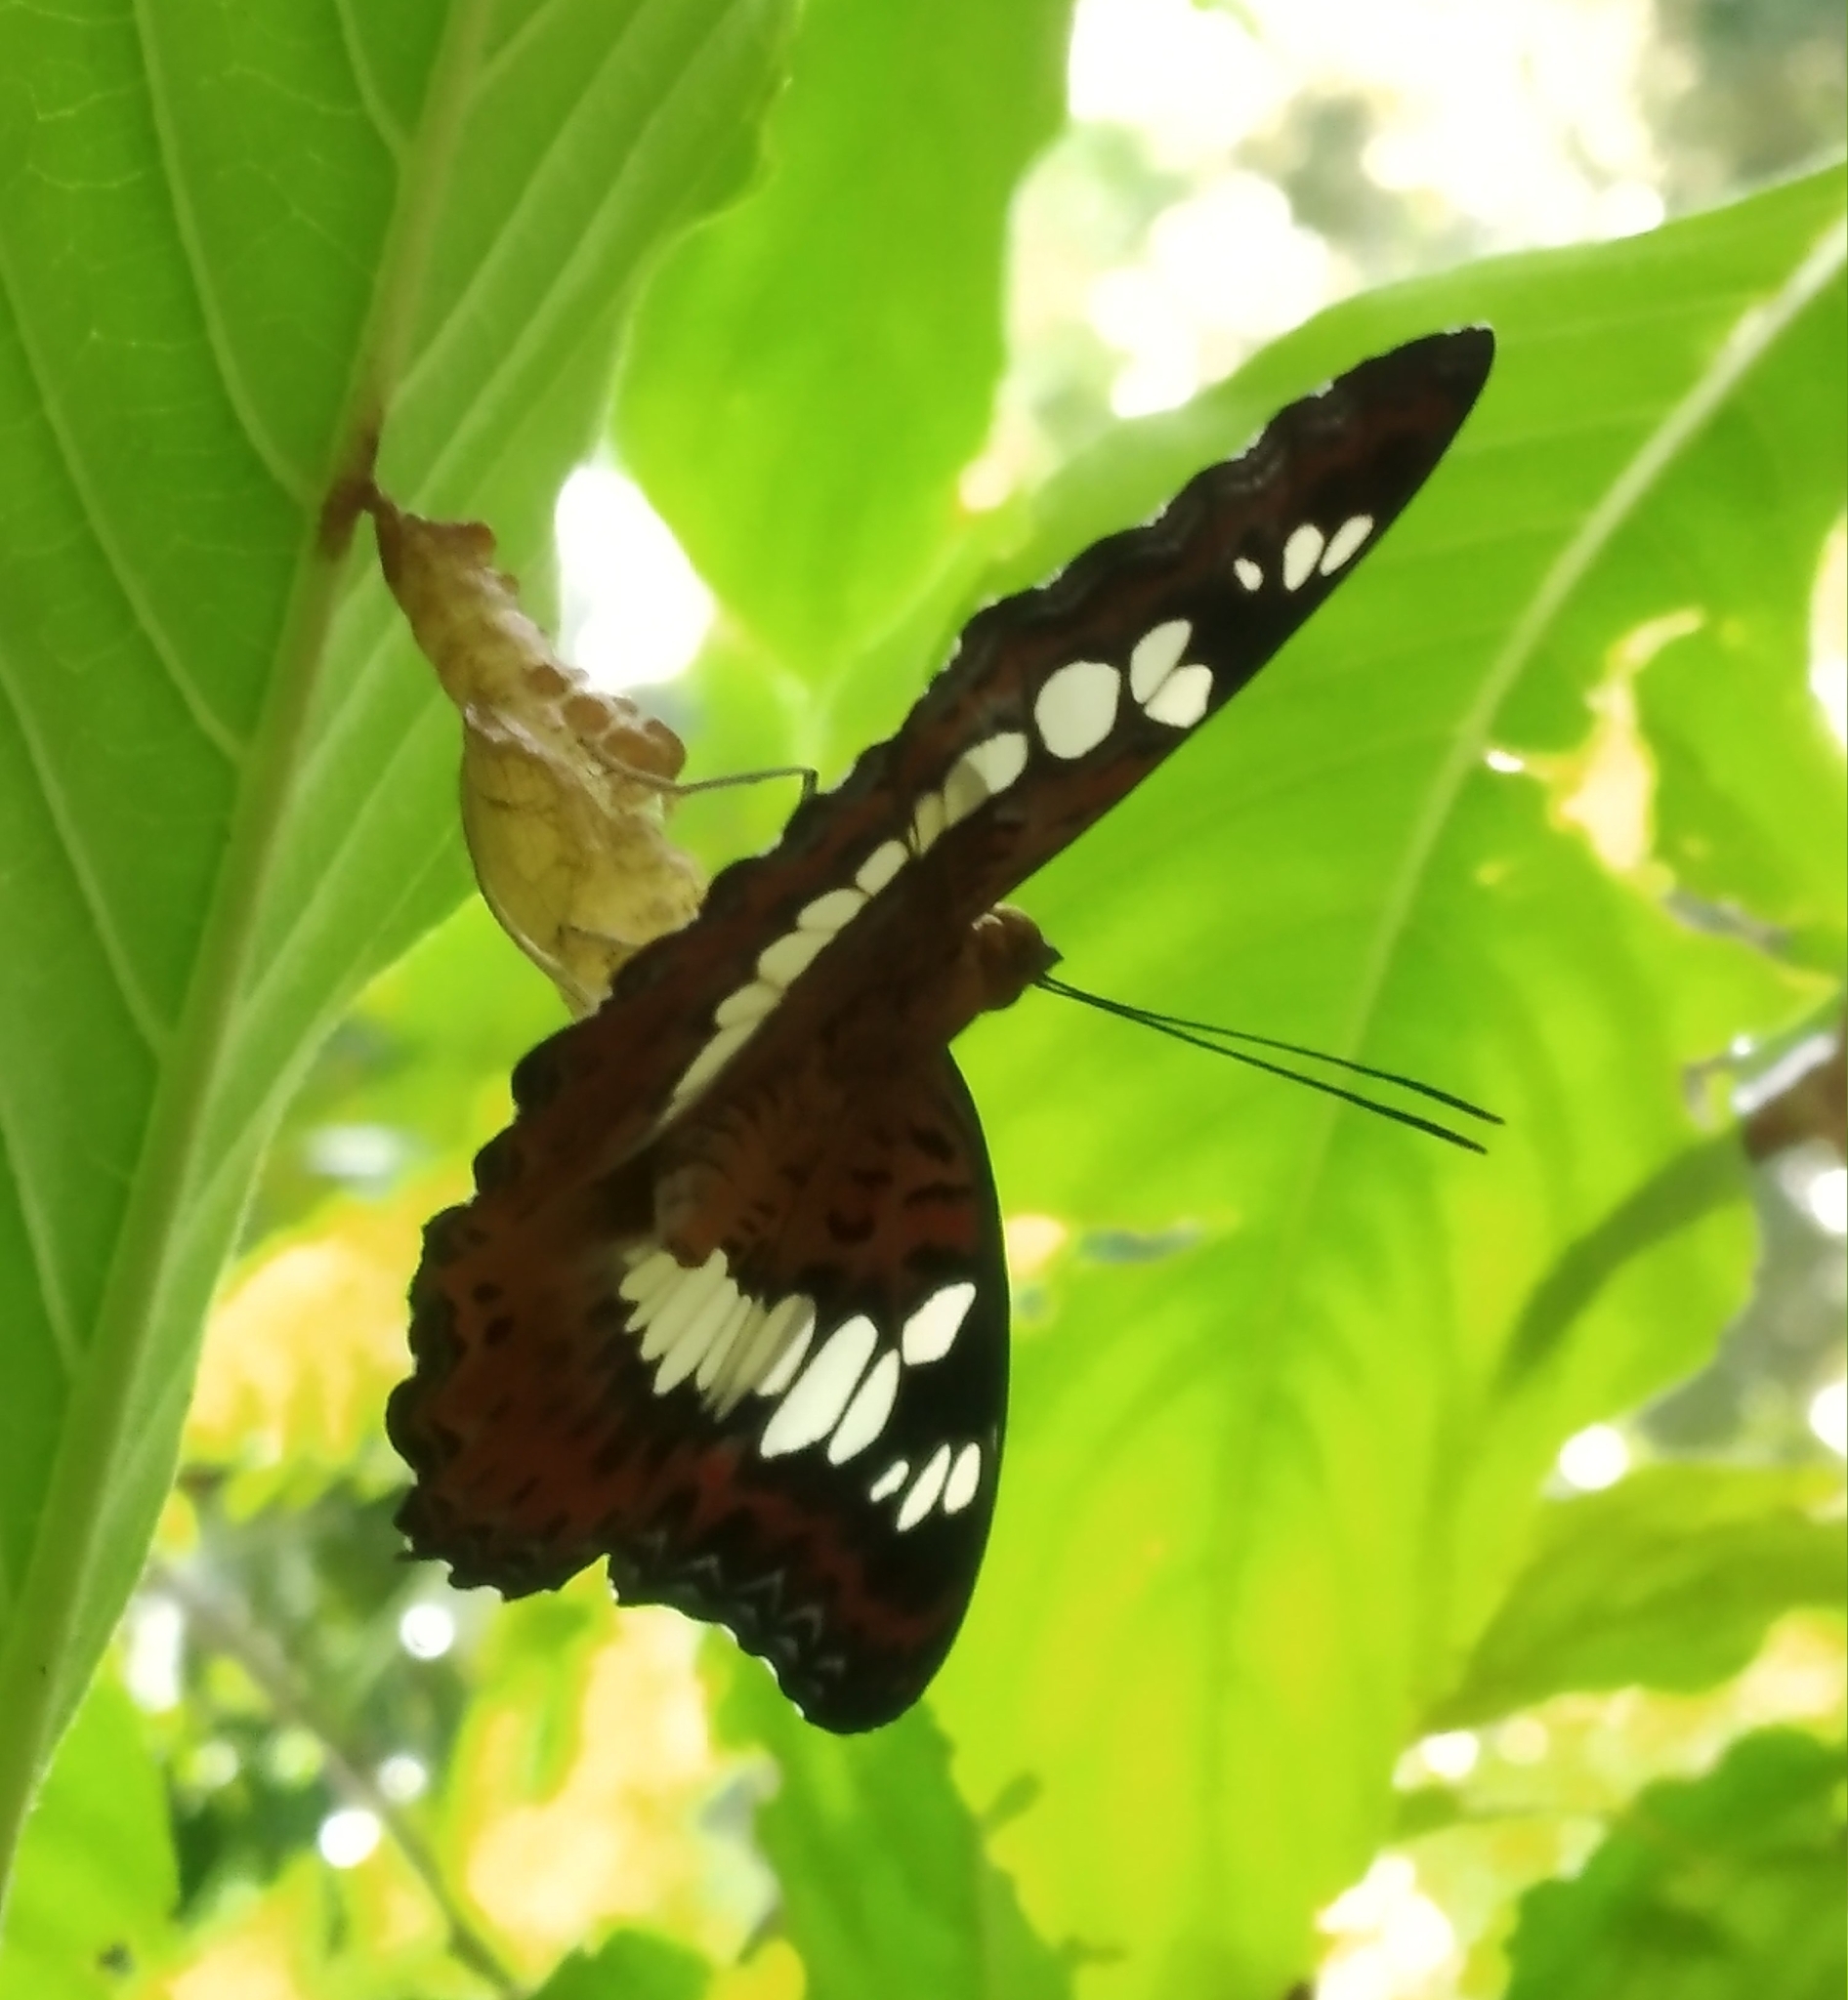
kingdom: Animalia
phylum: Arthropoda
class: Insecta
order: Lepidoptera
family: Nymphalidae
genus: Limenitis
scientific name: Limenitis Moduza procris
